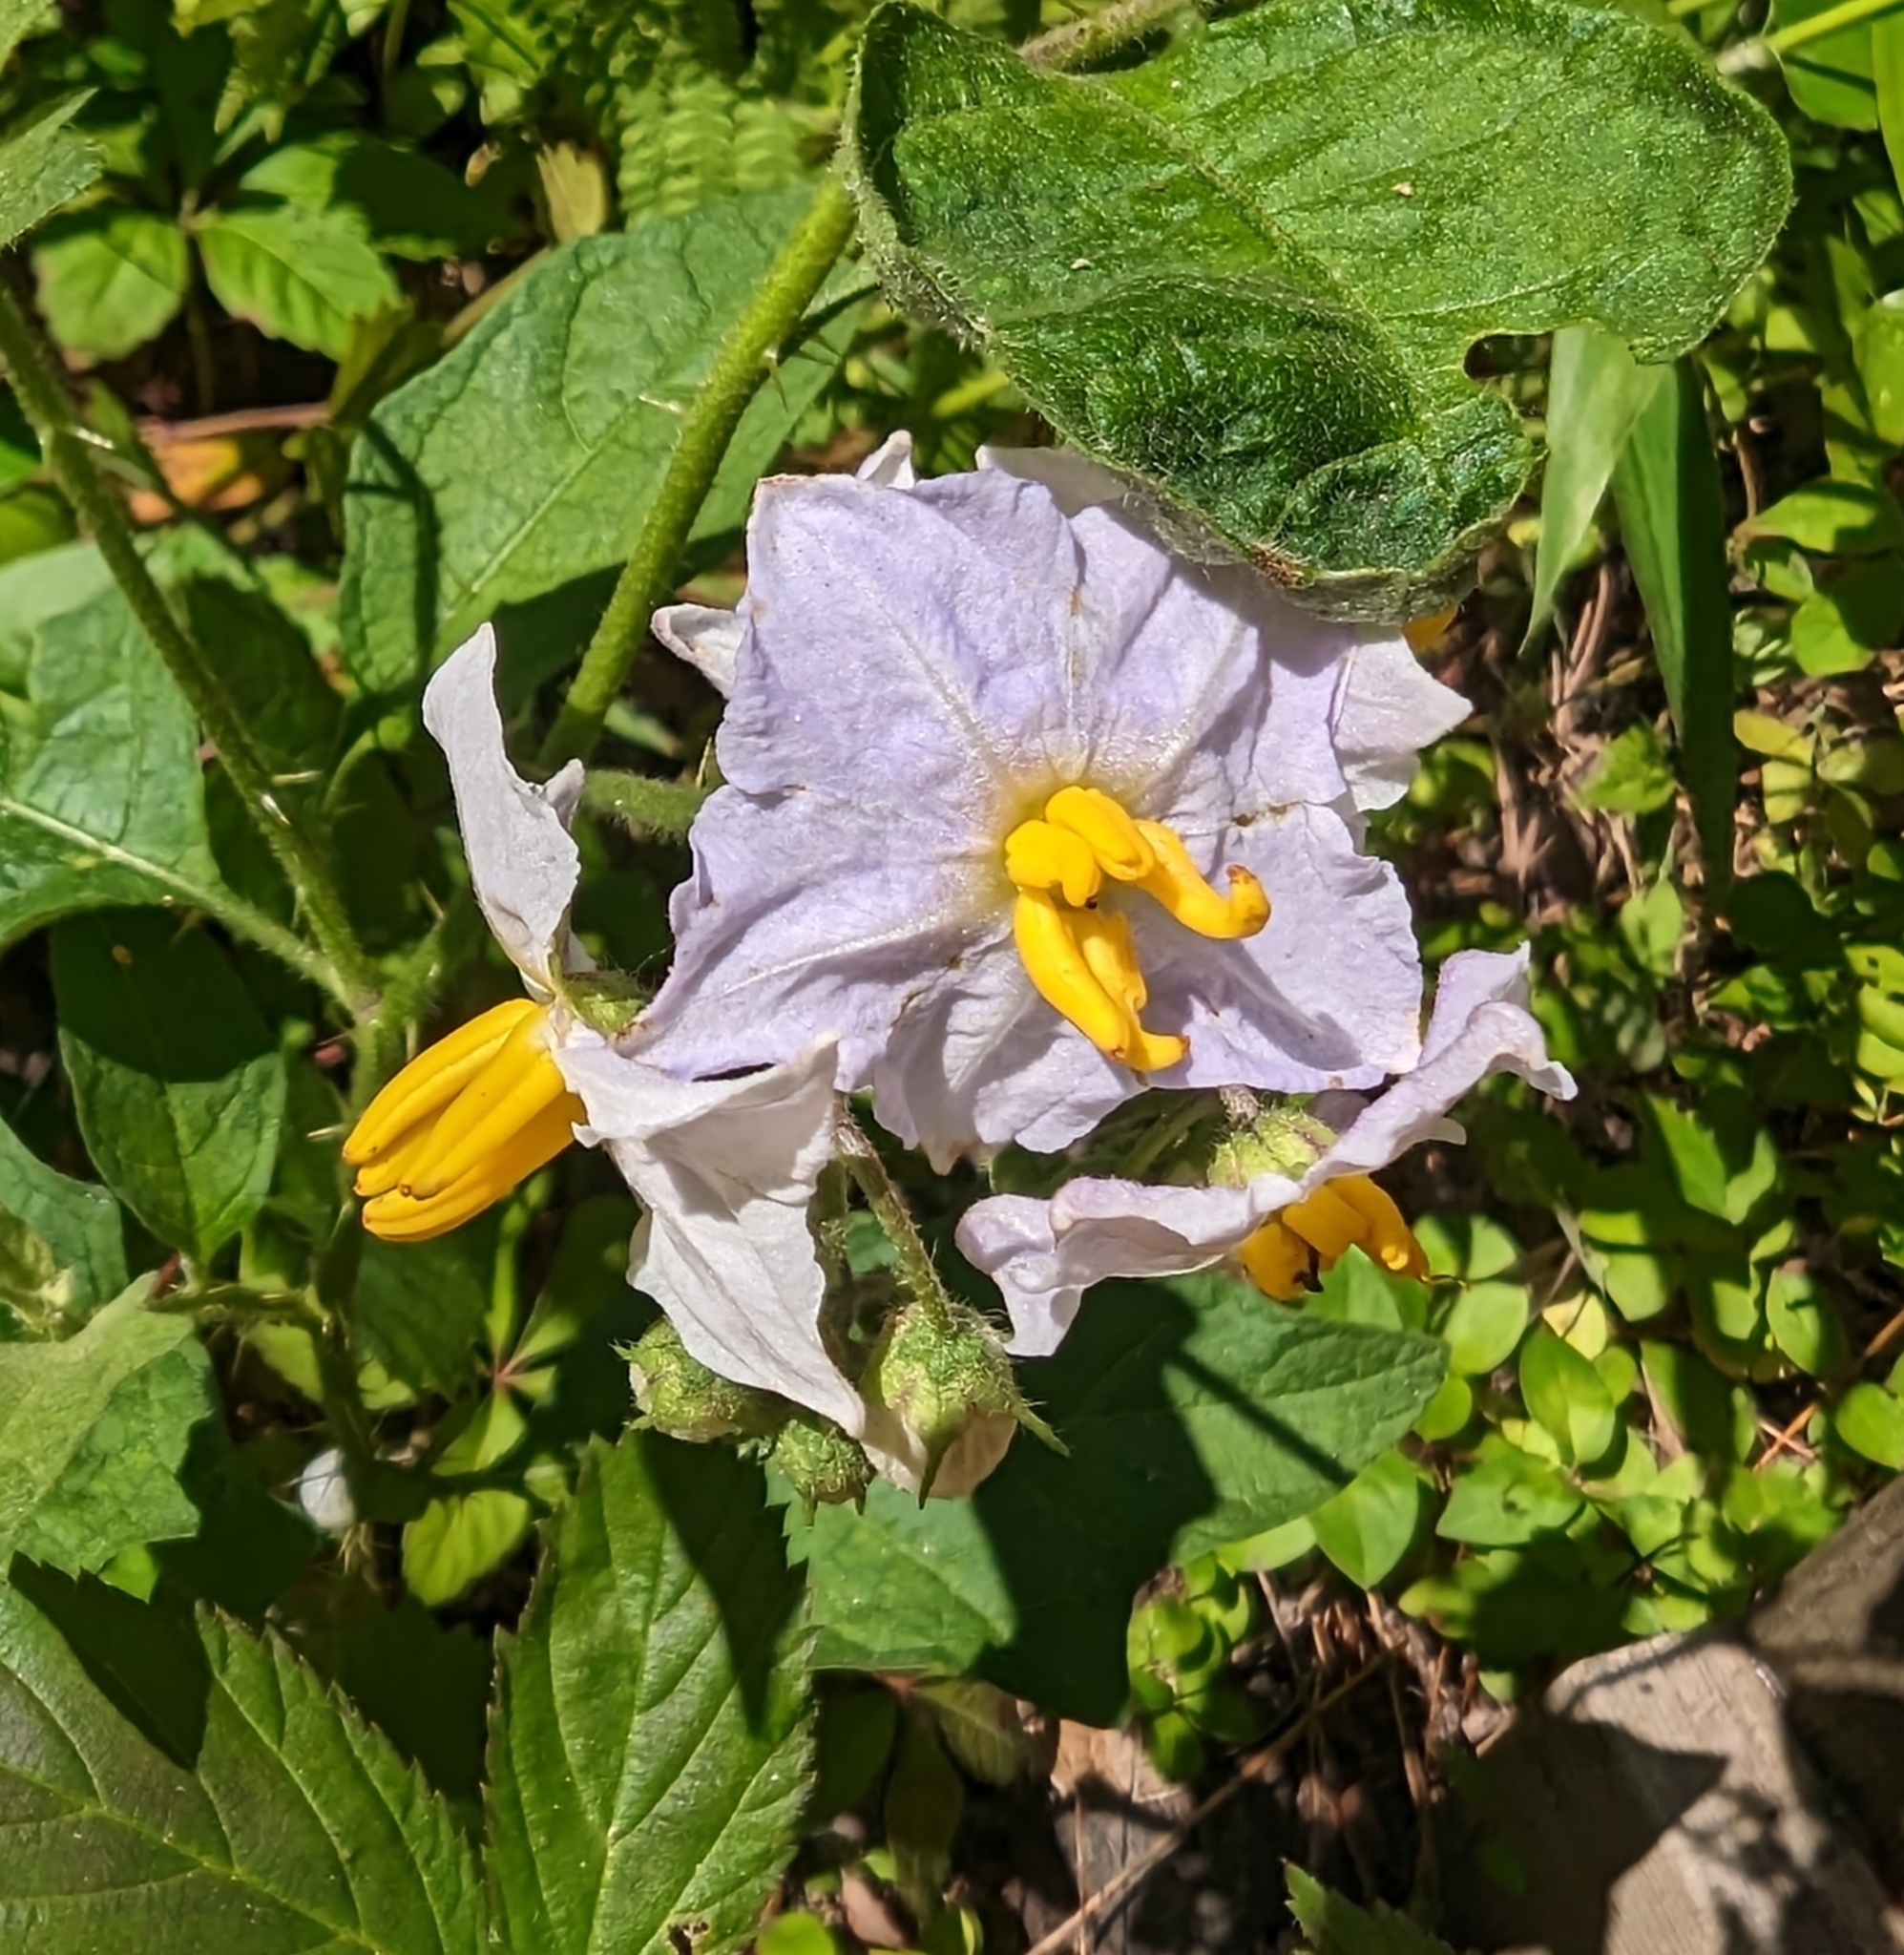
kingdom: Plantae
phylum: Tracheophyta
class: Magnoliopsida
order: Solanales
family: Solanaceae
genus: Solanum
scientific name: Solanum carolinense
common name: Horse-nettle
